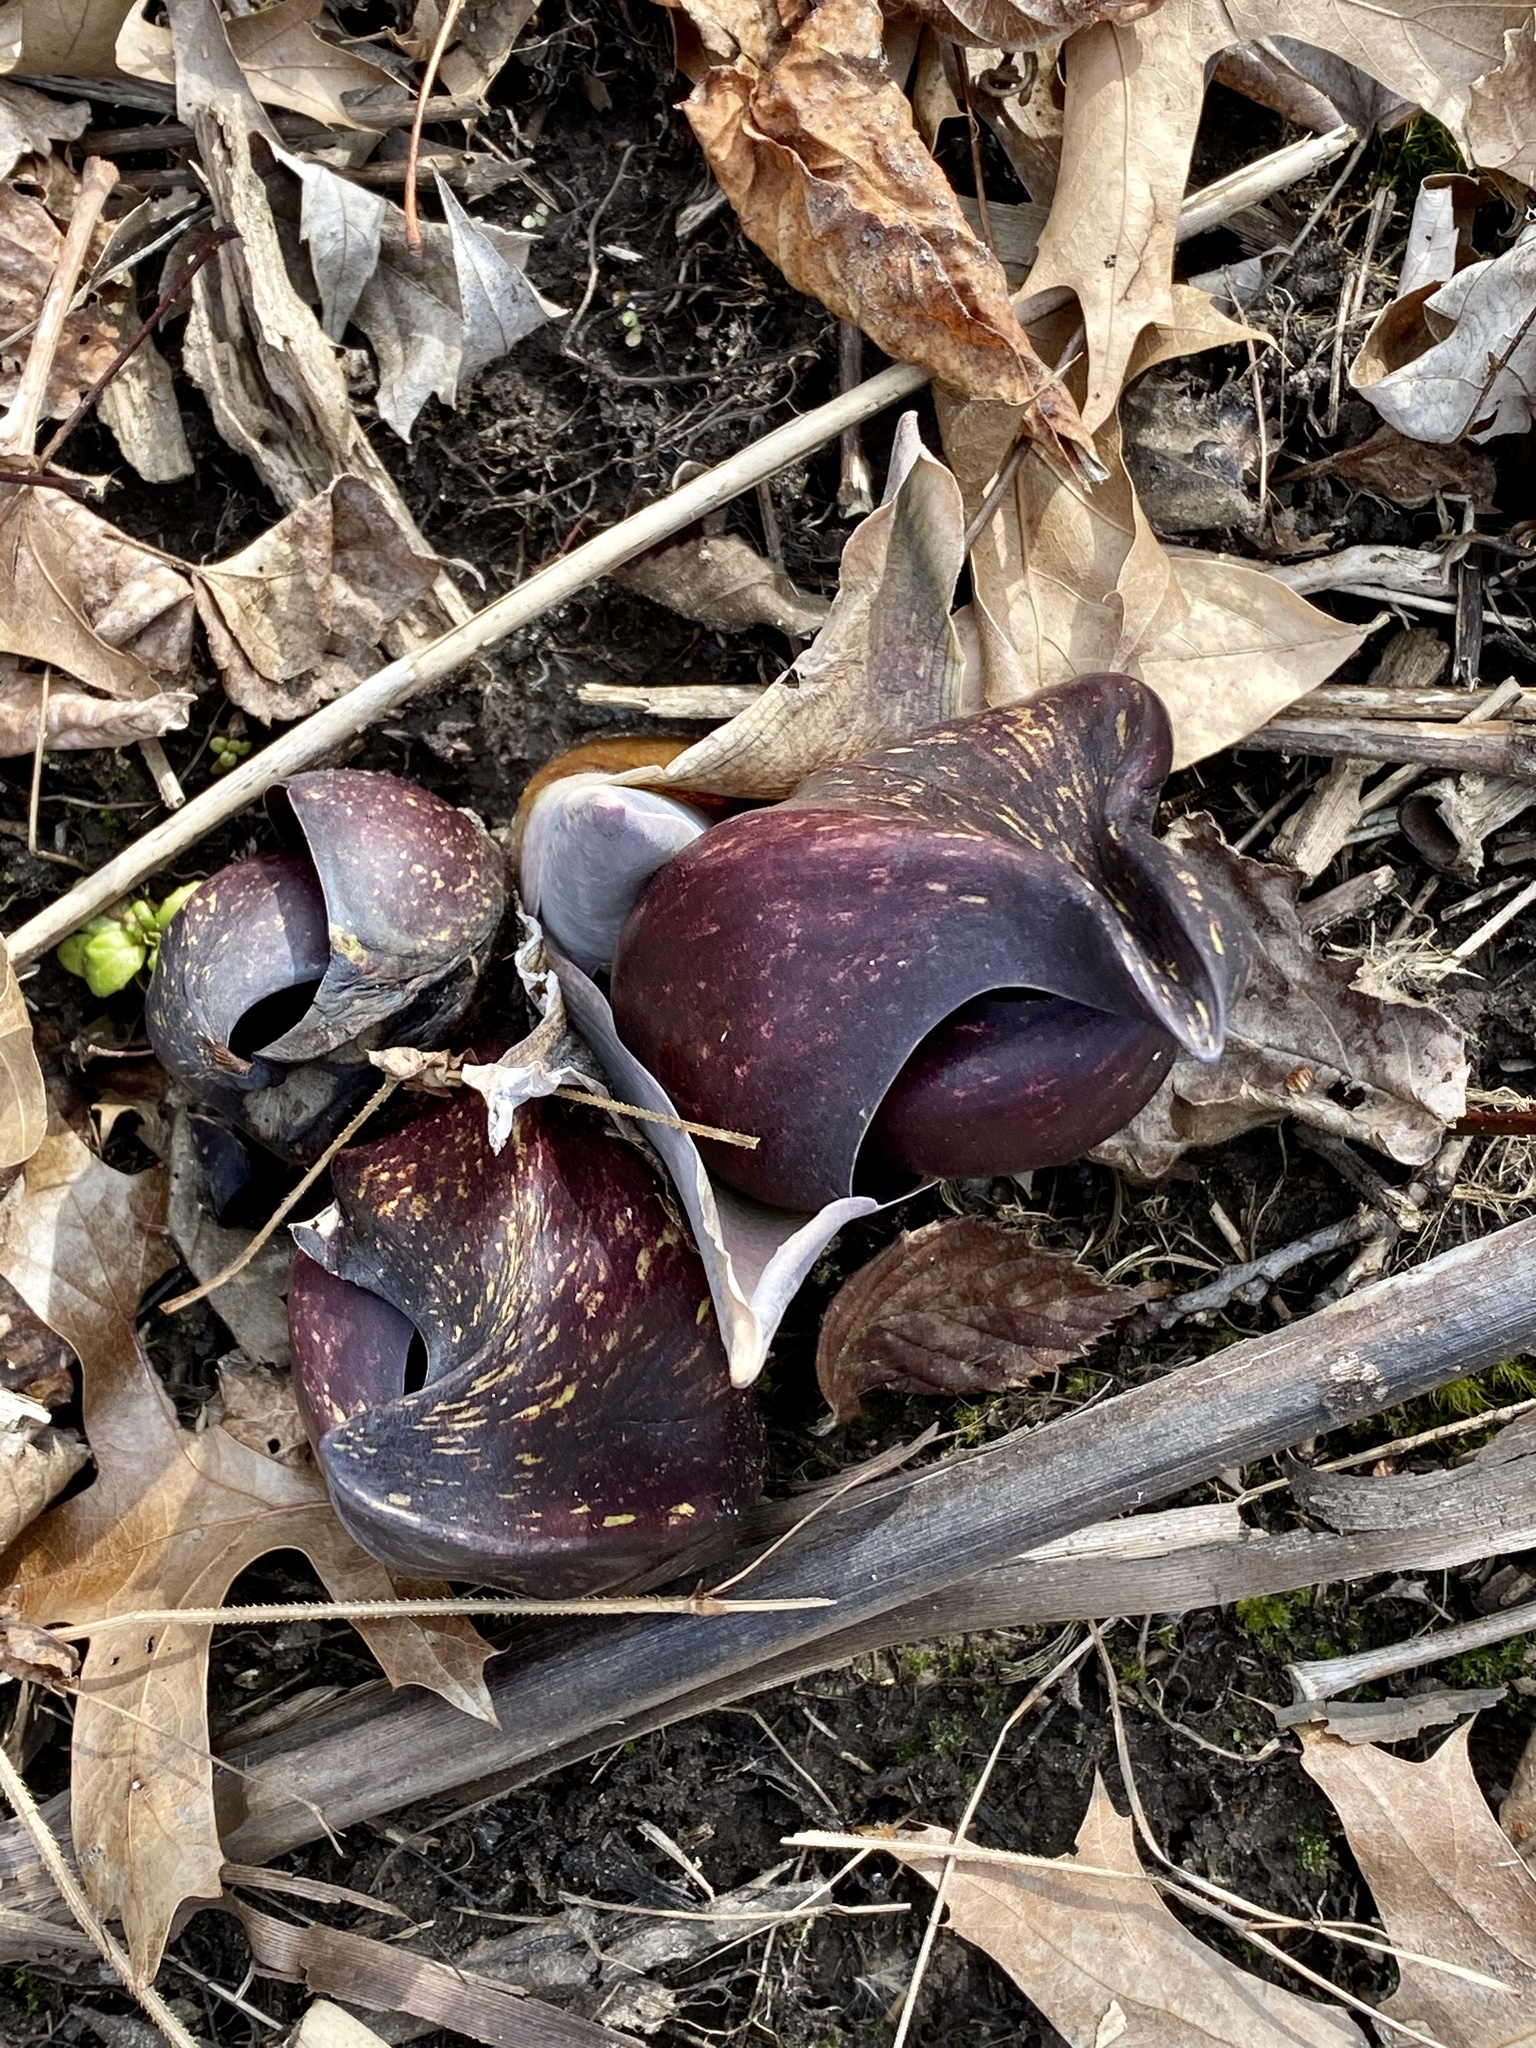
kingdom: Plantae
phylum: Tracheophyta
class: Liliopsida
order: Alismatales
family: Araceae
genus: Symplocarpus
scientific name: Symplocarpus foetidus
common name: Eastern skunk cabbage
